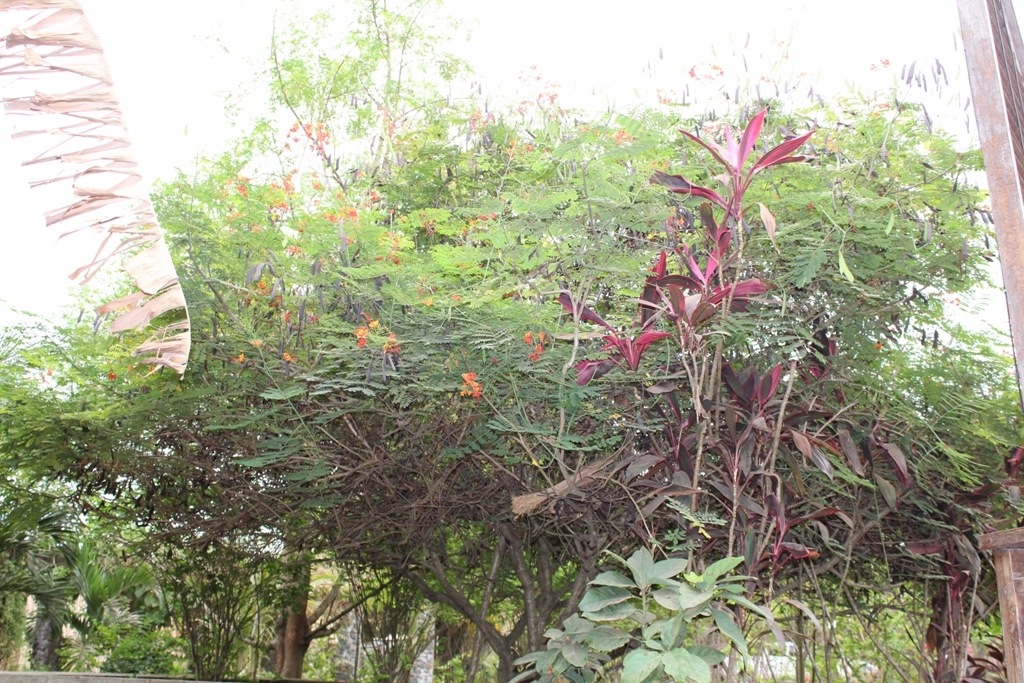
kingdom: Plantae
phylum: Tracheophyta
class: Magnoliopsida
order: Fabales
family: Fabaceae
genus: Caesalpinia
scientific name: Caesalpinia pulcherrima
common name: Pride-of-barbados
